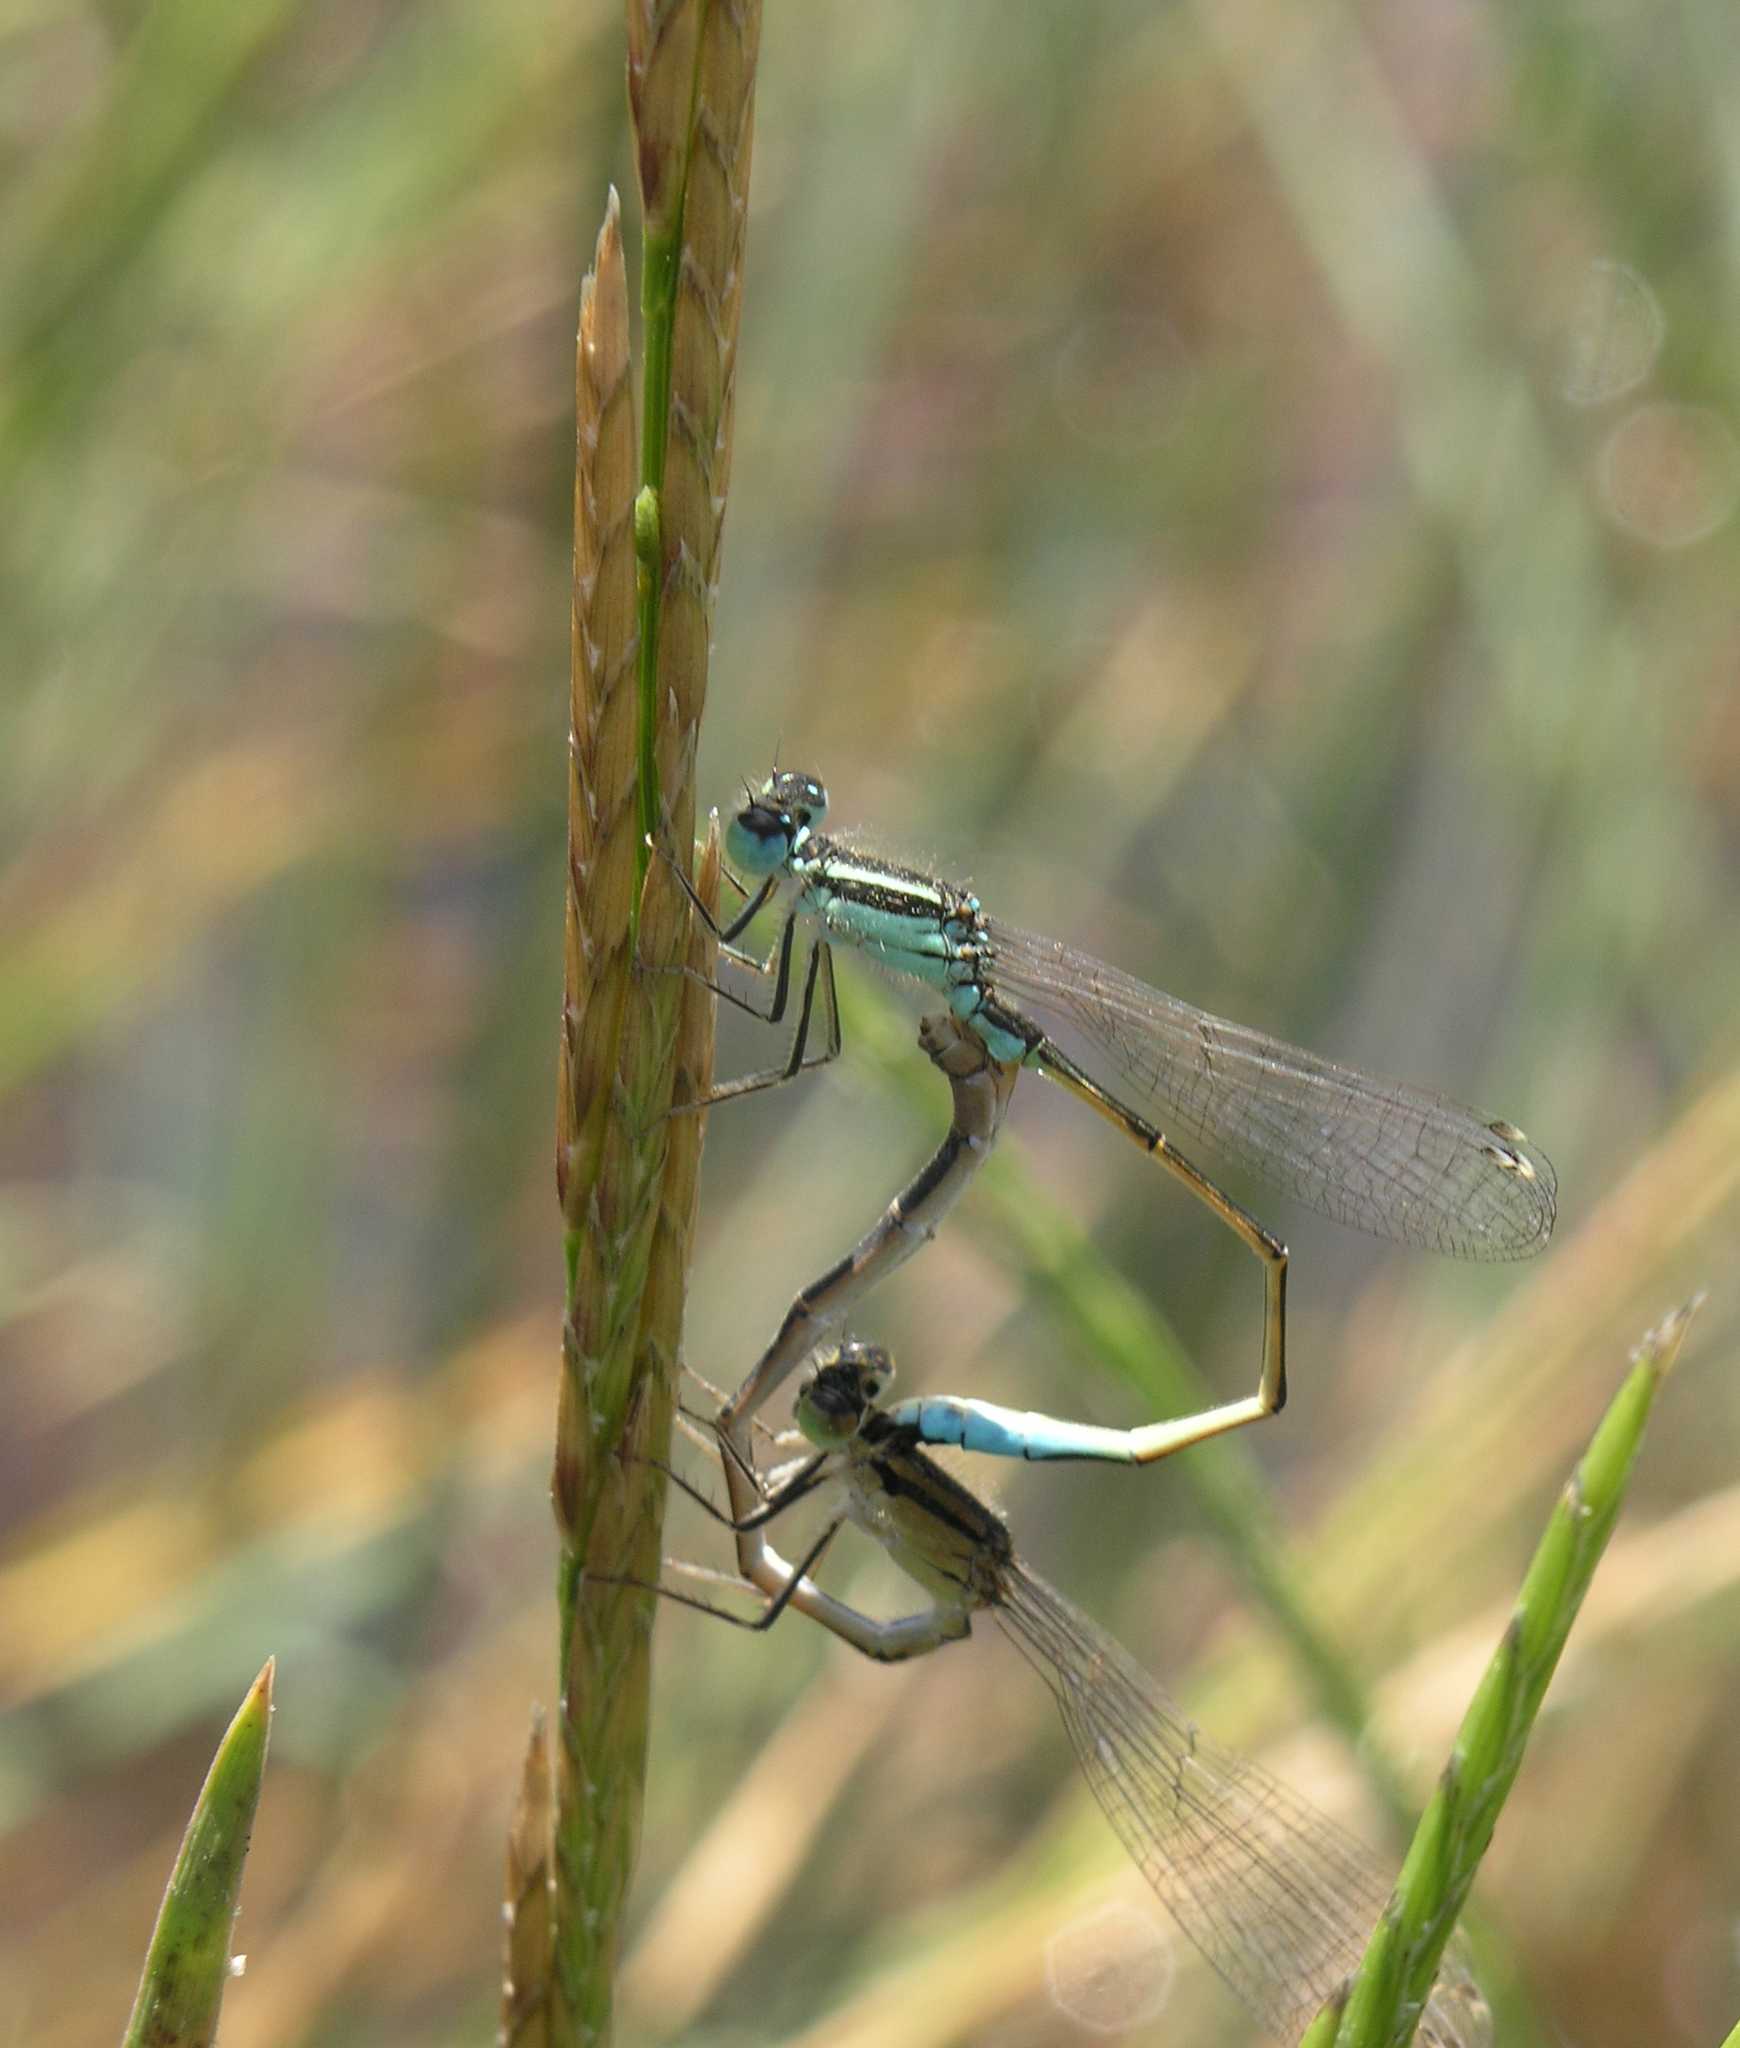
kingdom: Animalia
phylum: Arthropoda
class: Insecta
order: Odonata
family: Coenagrionidae
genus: Ischnura
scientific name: Ischnura graellsii
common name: Iberian bluetail
